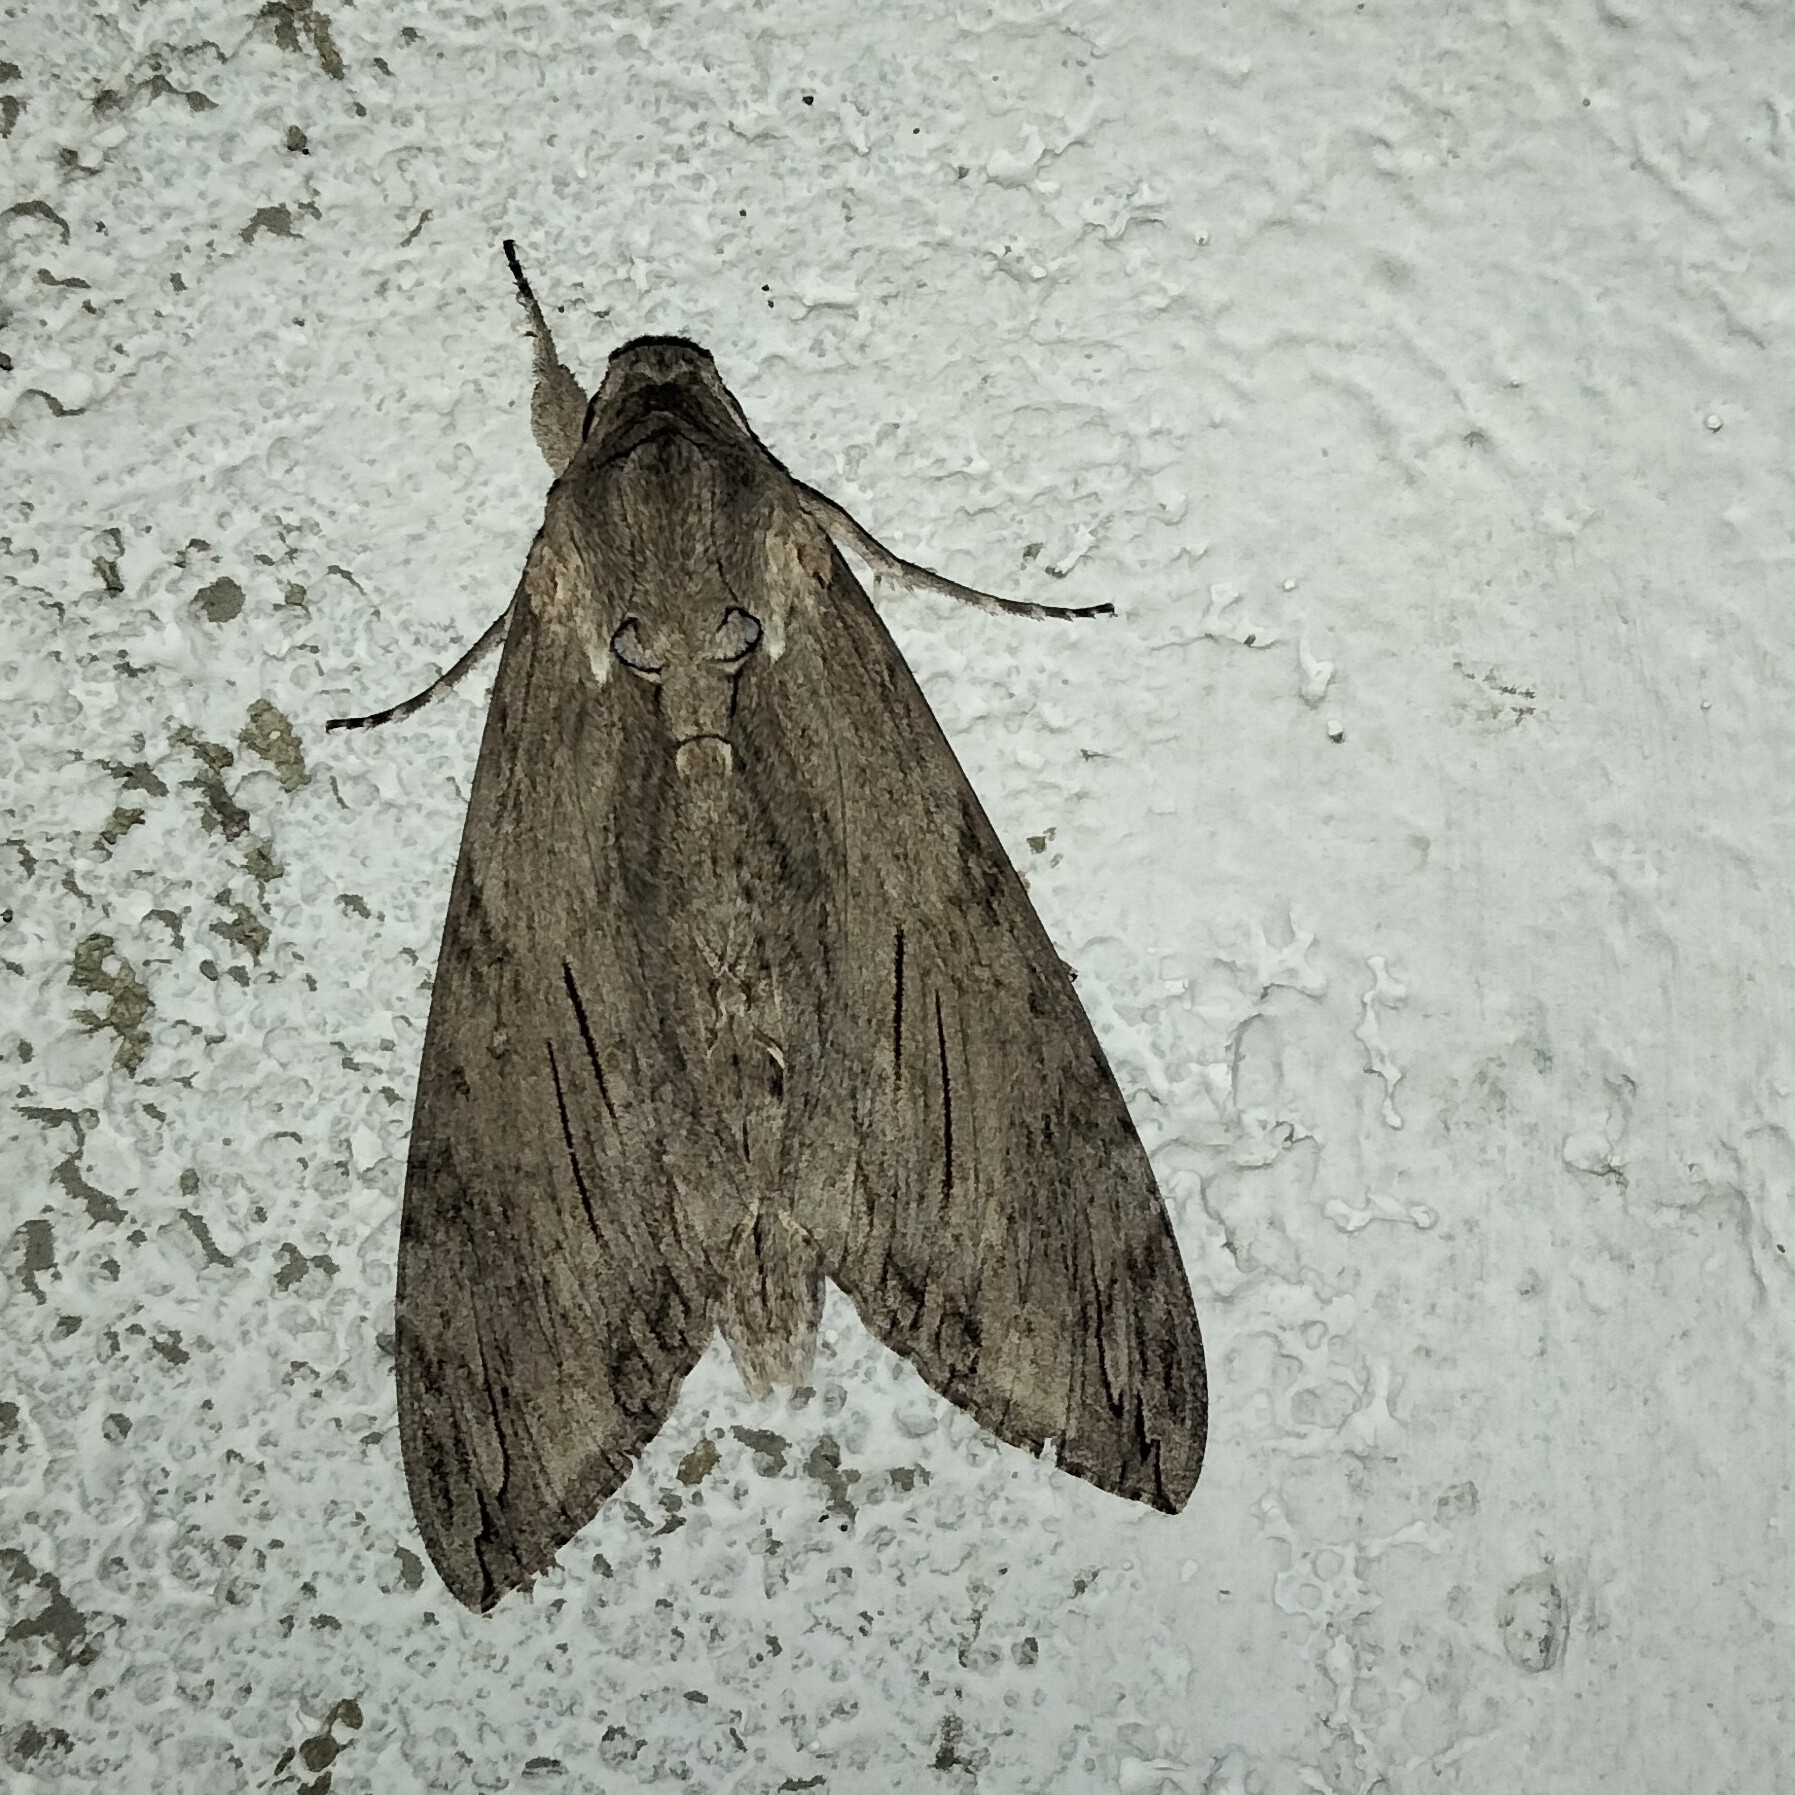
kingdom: Animalia
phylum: Arthropoda
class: Insecta
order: Lepidoptera
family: Sphingidae
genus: Agrius
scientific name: Agrius convolvuli
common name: Convolvulus hawkmoth
